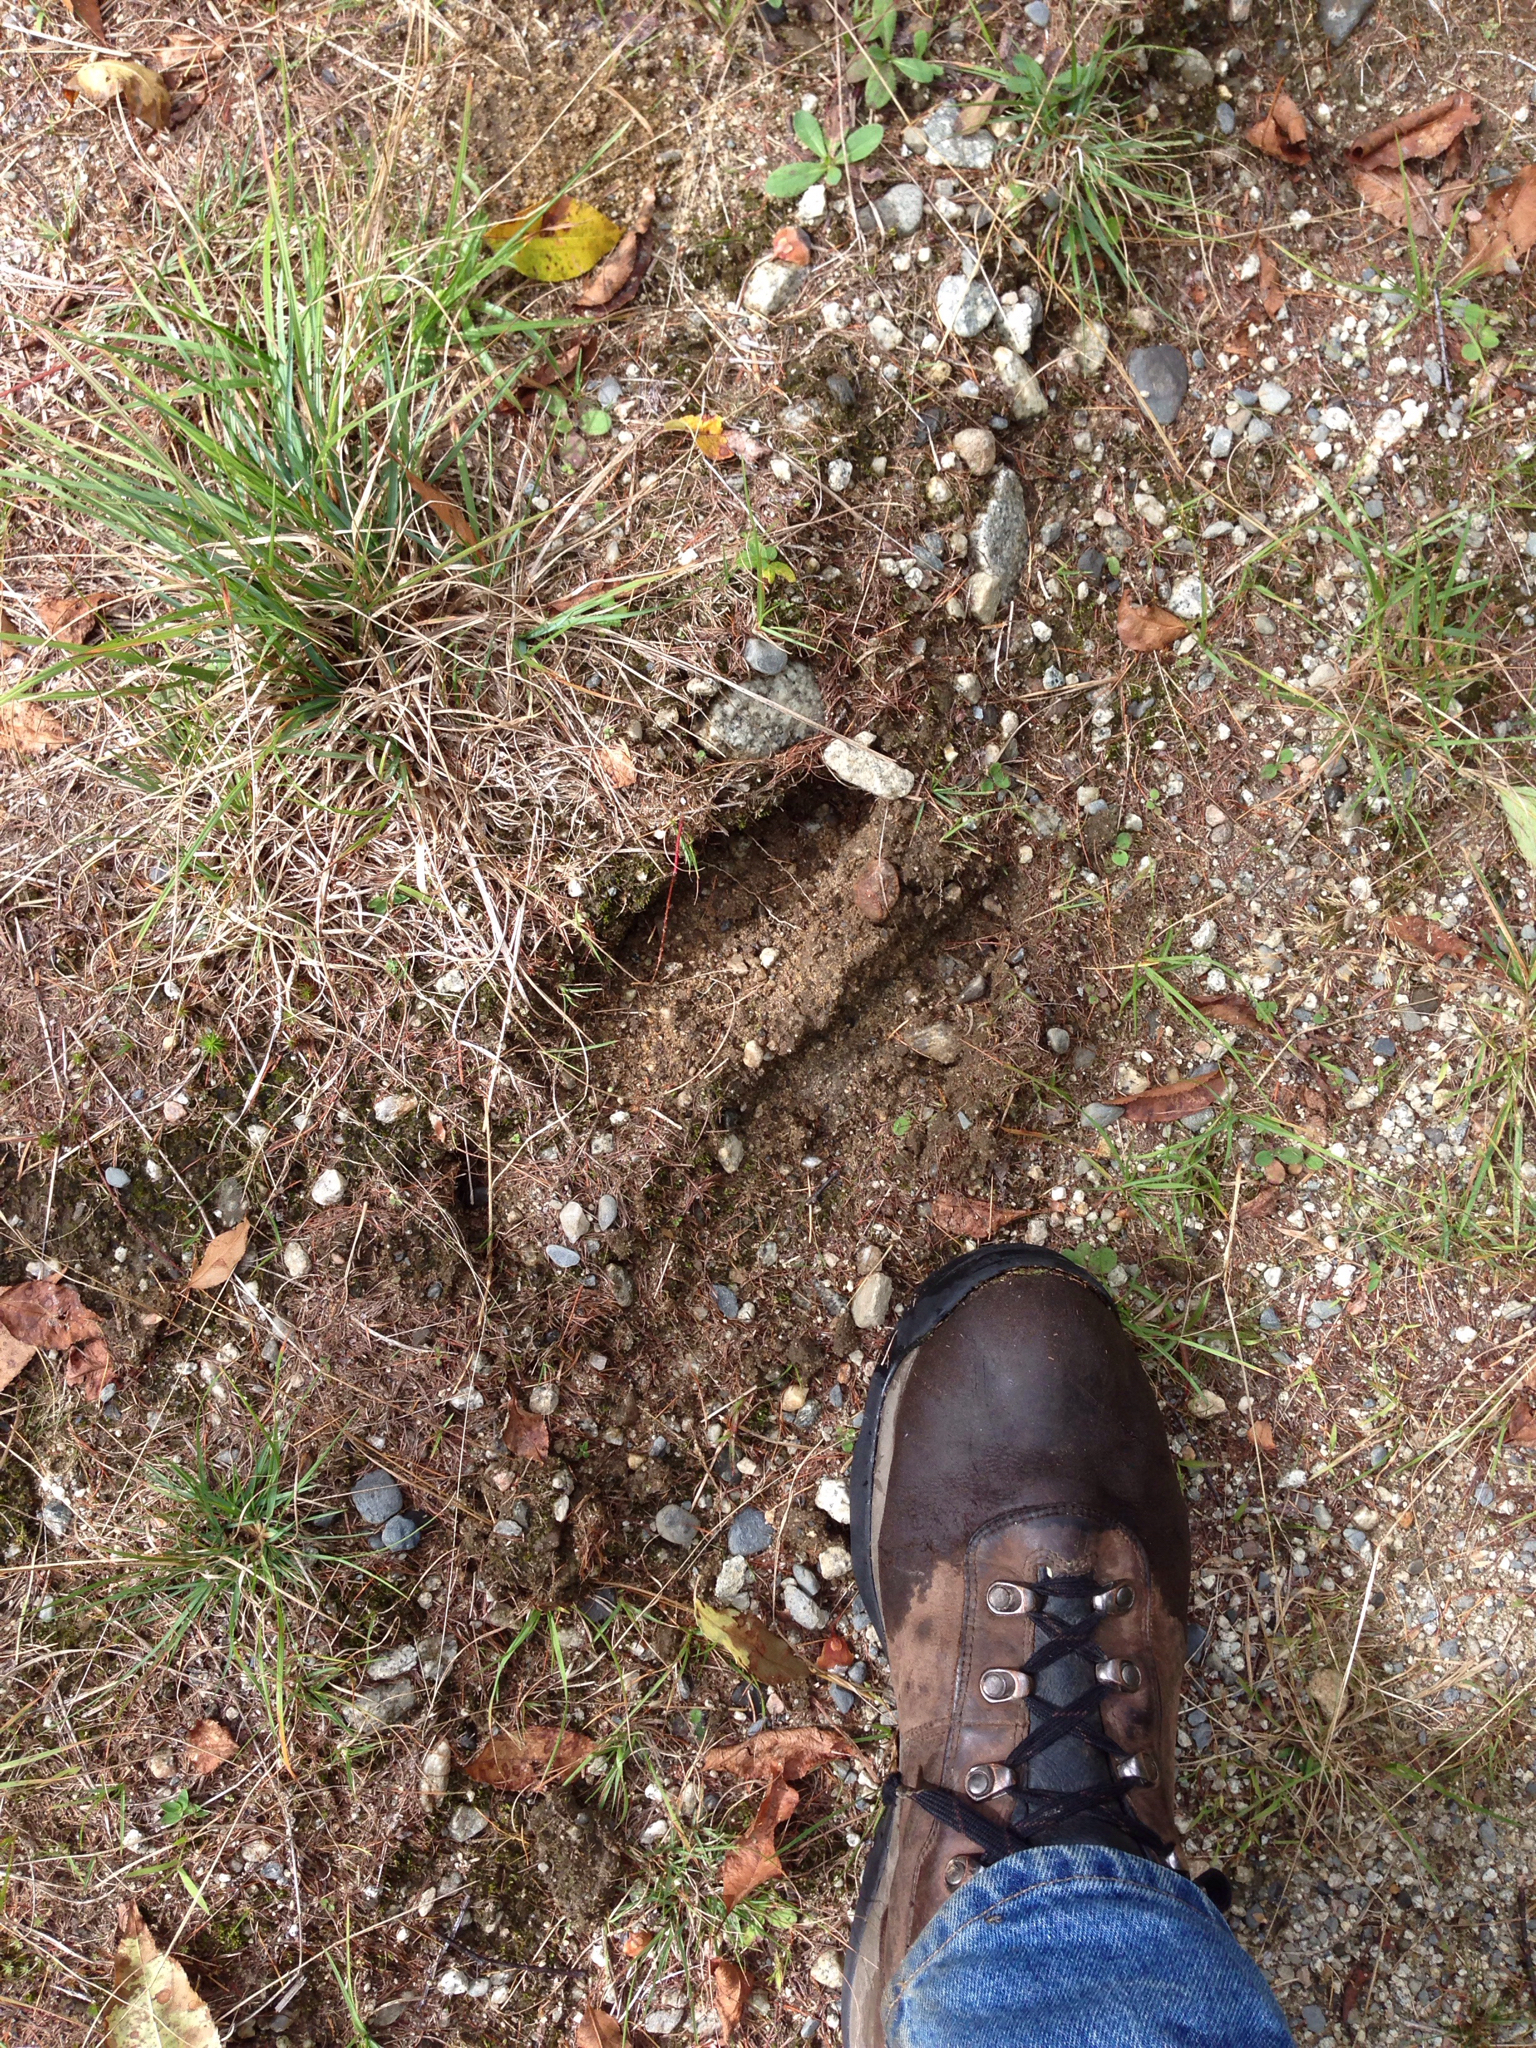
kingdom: Animalia
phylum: Chordata
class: Mammalia
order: Artiodactyla
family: Cervidae
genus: Alces
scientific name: Alces alces
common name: Moose
